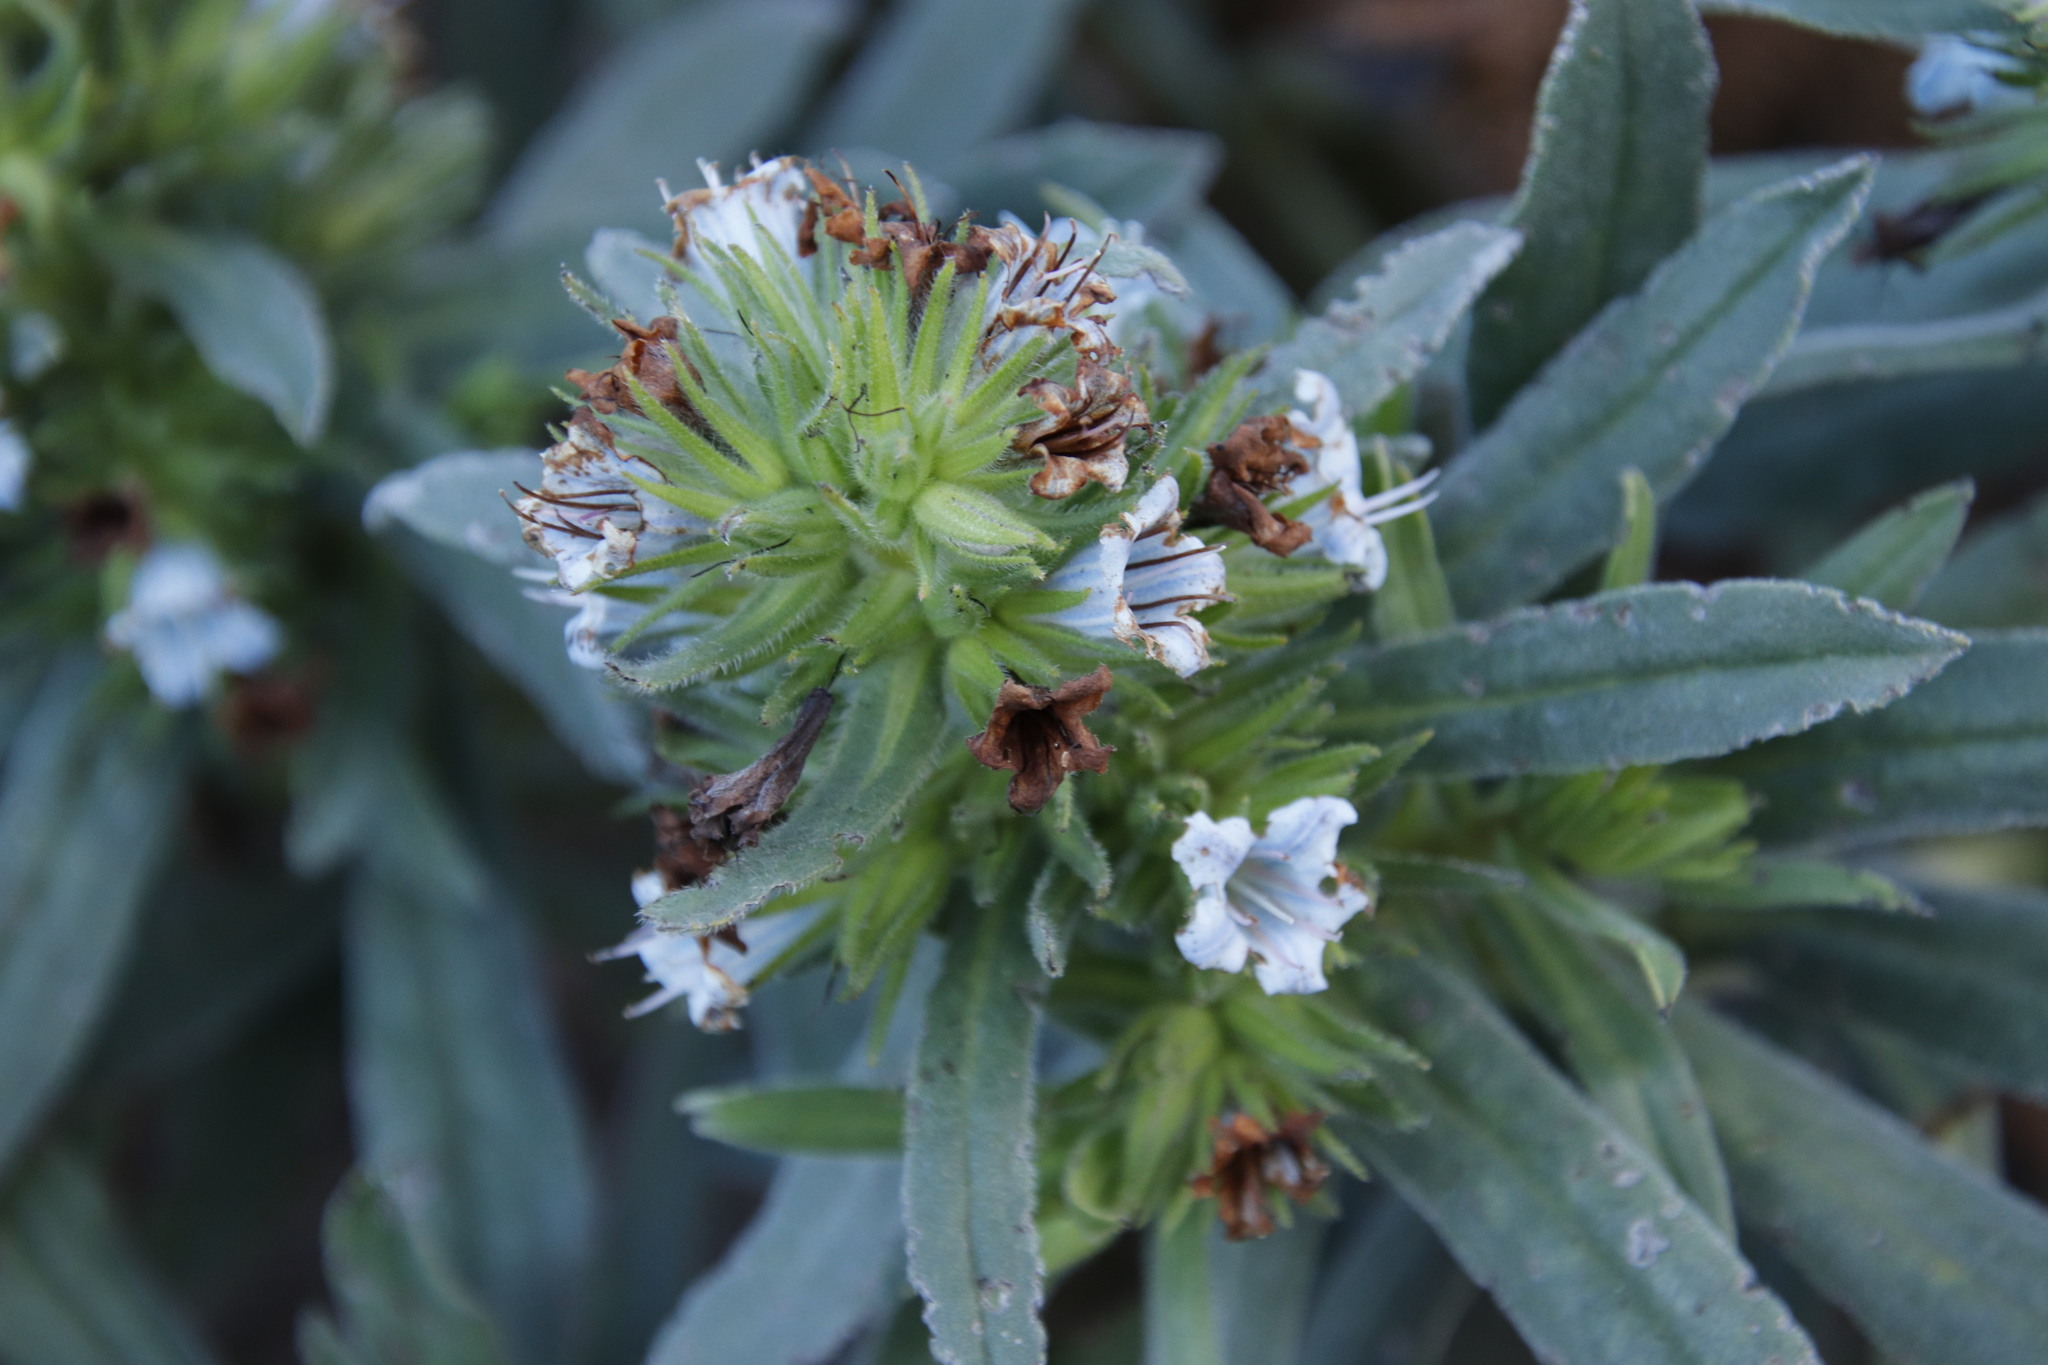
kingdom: Plantae
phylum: Tracheophyta
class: Magnoliopsida
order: Boraginales
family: Boraginaceae
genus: Lobostemon
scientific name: Lobostemon montanus
